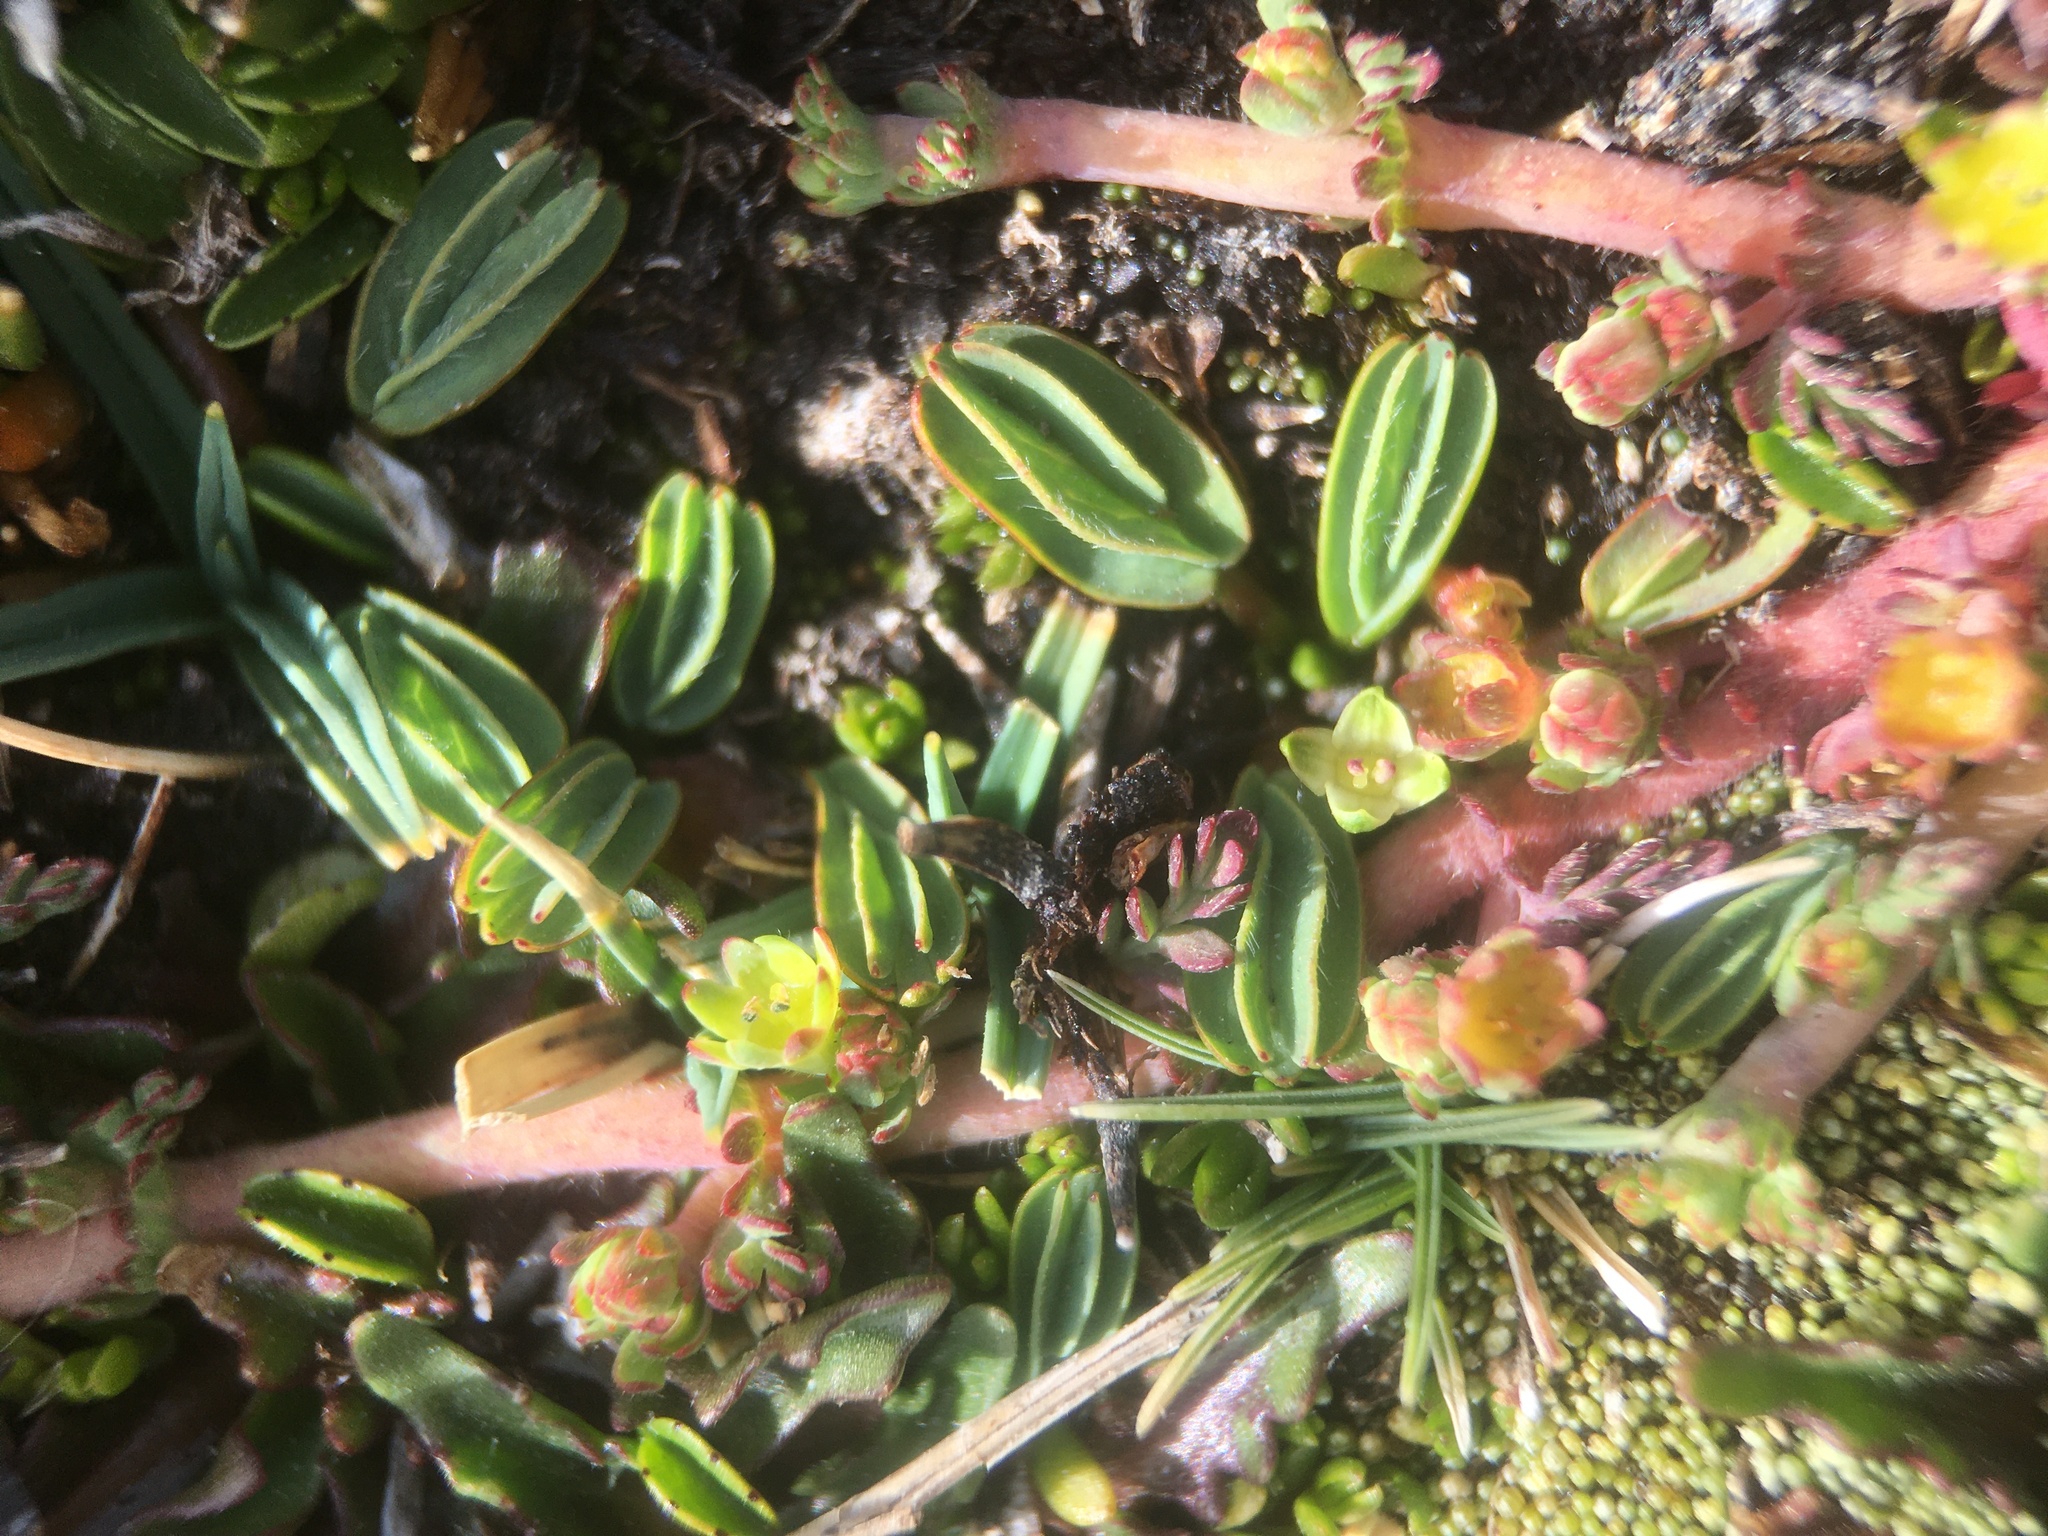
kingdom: Plantae
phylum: Tracheophyta
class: Magnoliopsida
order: Rosales
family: Rosaceae
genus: Lachemilla
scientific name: Lachemilla diplophylla
